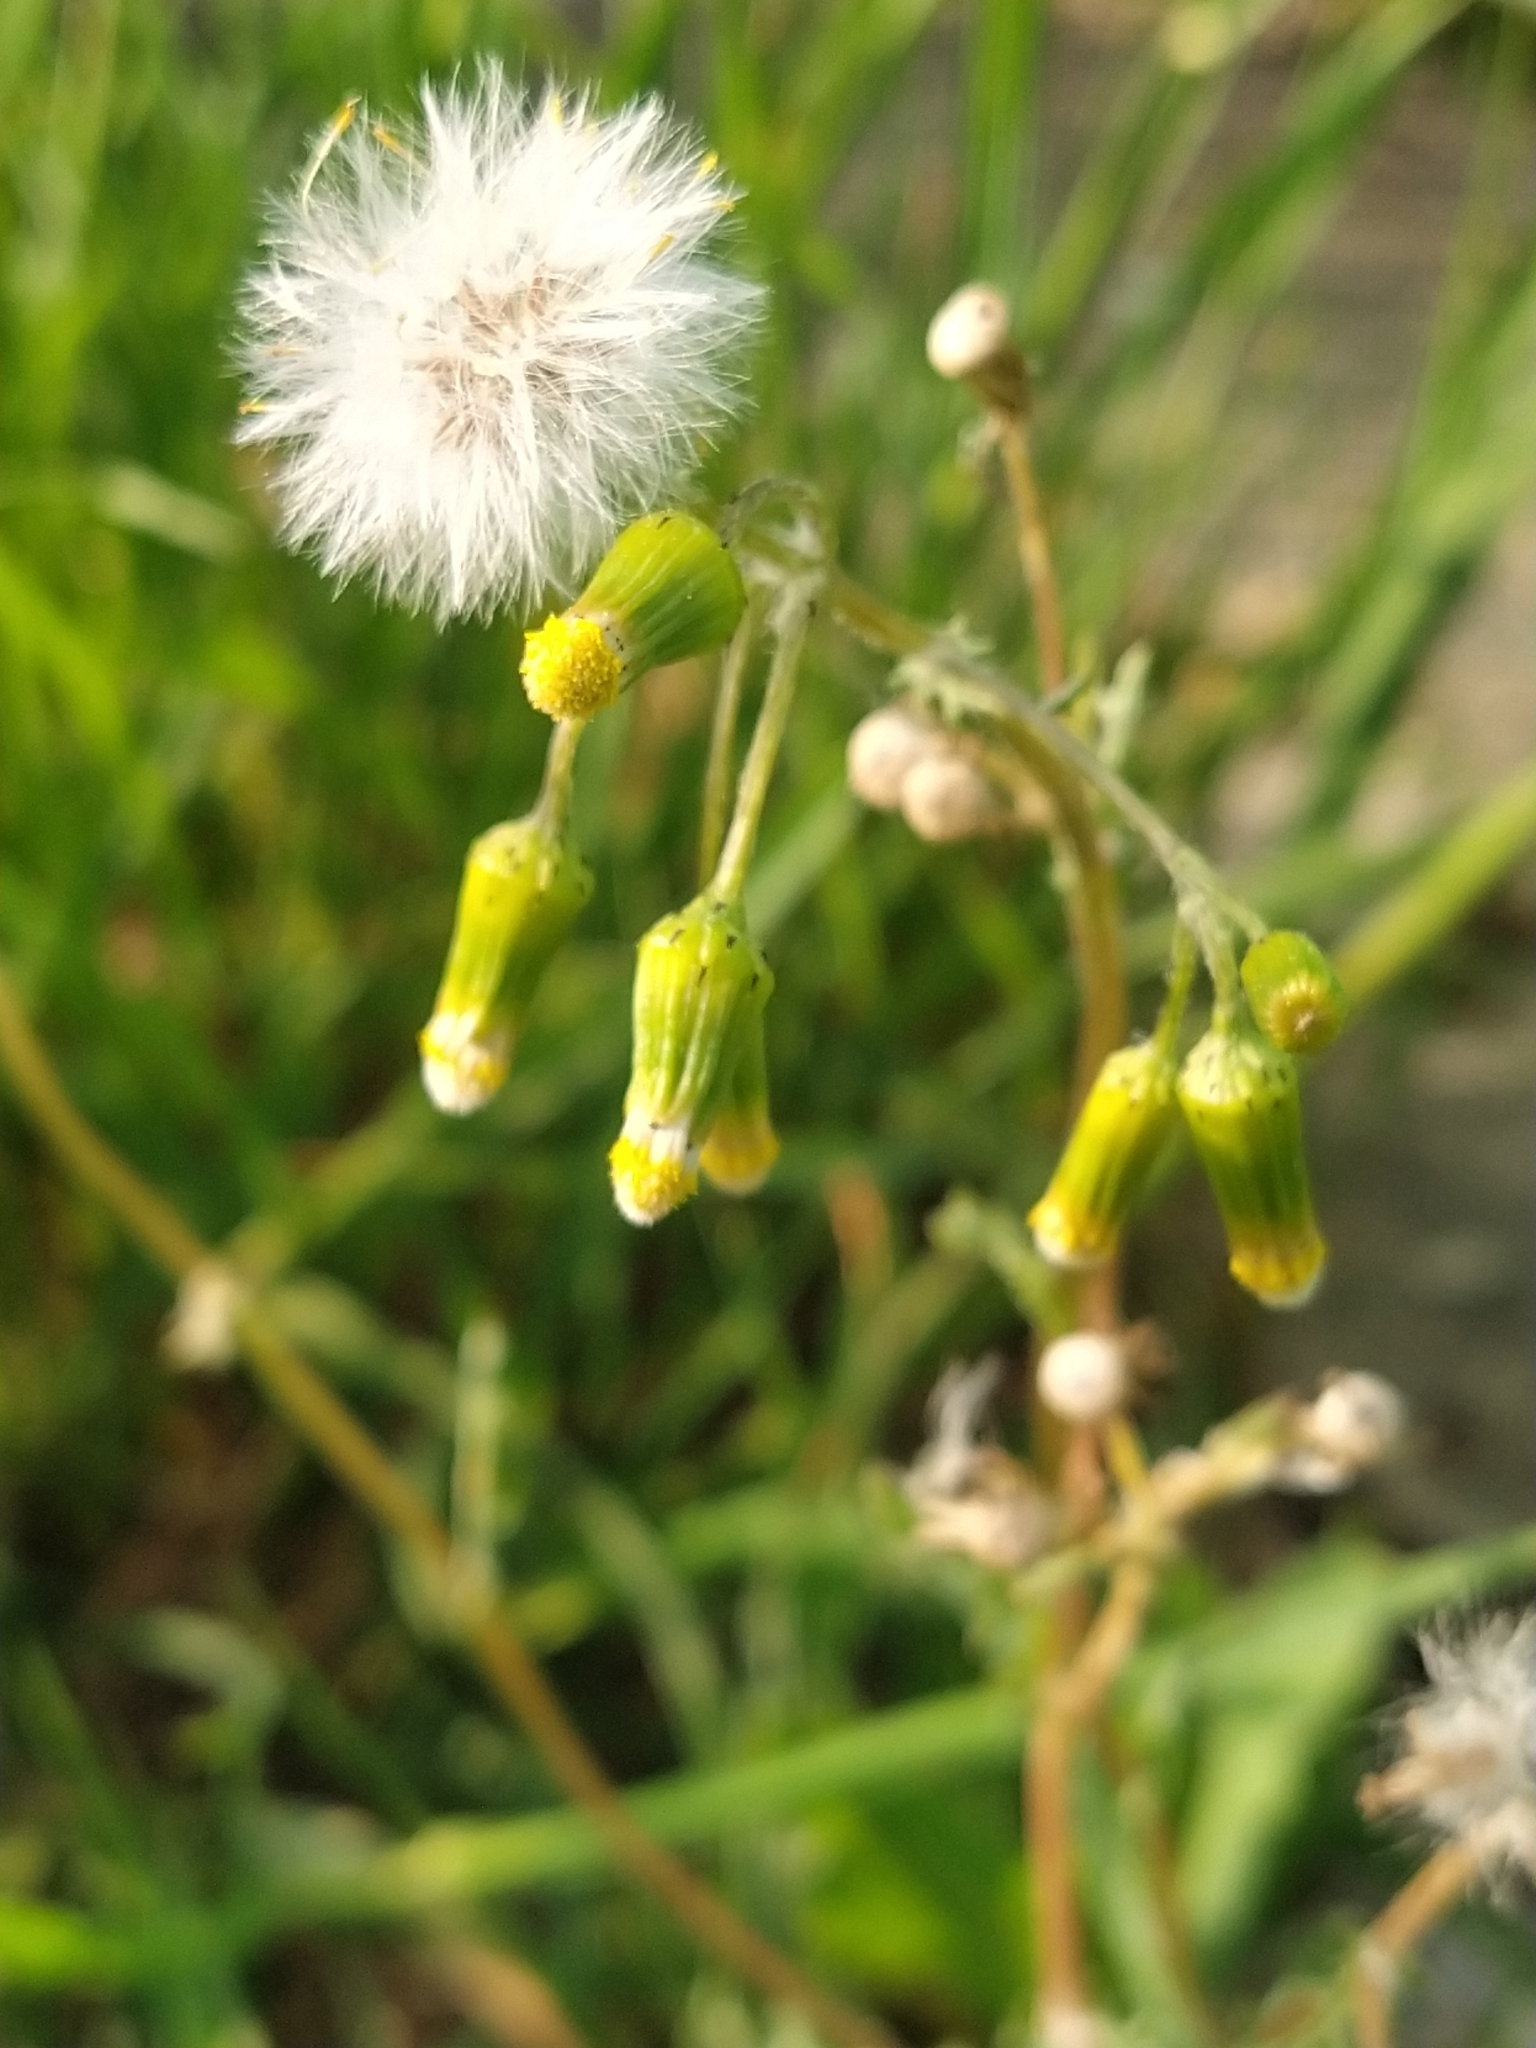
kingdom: Plantae
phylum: Tracheophyta
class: Magnoliopsida
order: Asterales
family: Asteraceae
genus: Senecio
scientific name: Senecio vulgaris
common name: Old-man-in-the-spring
